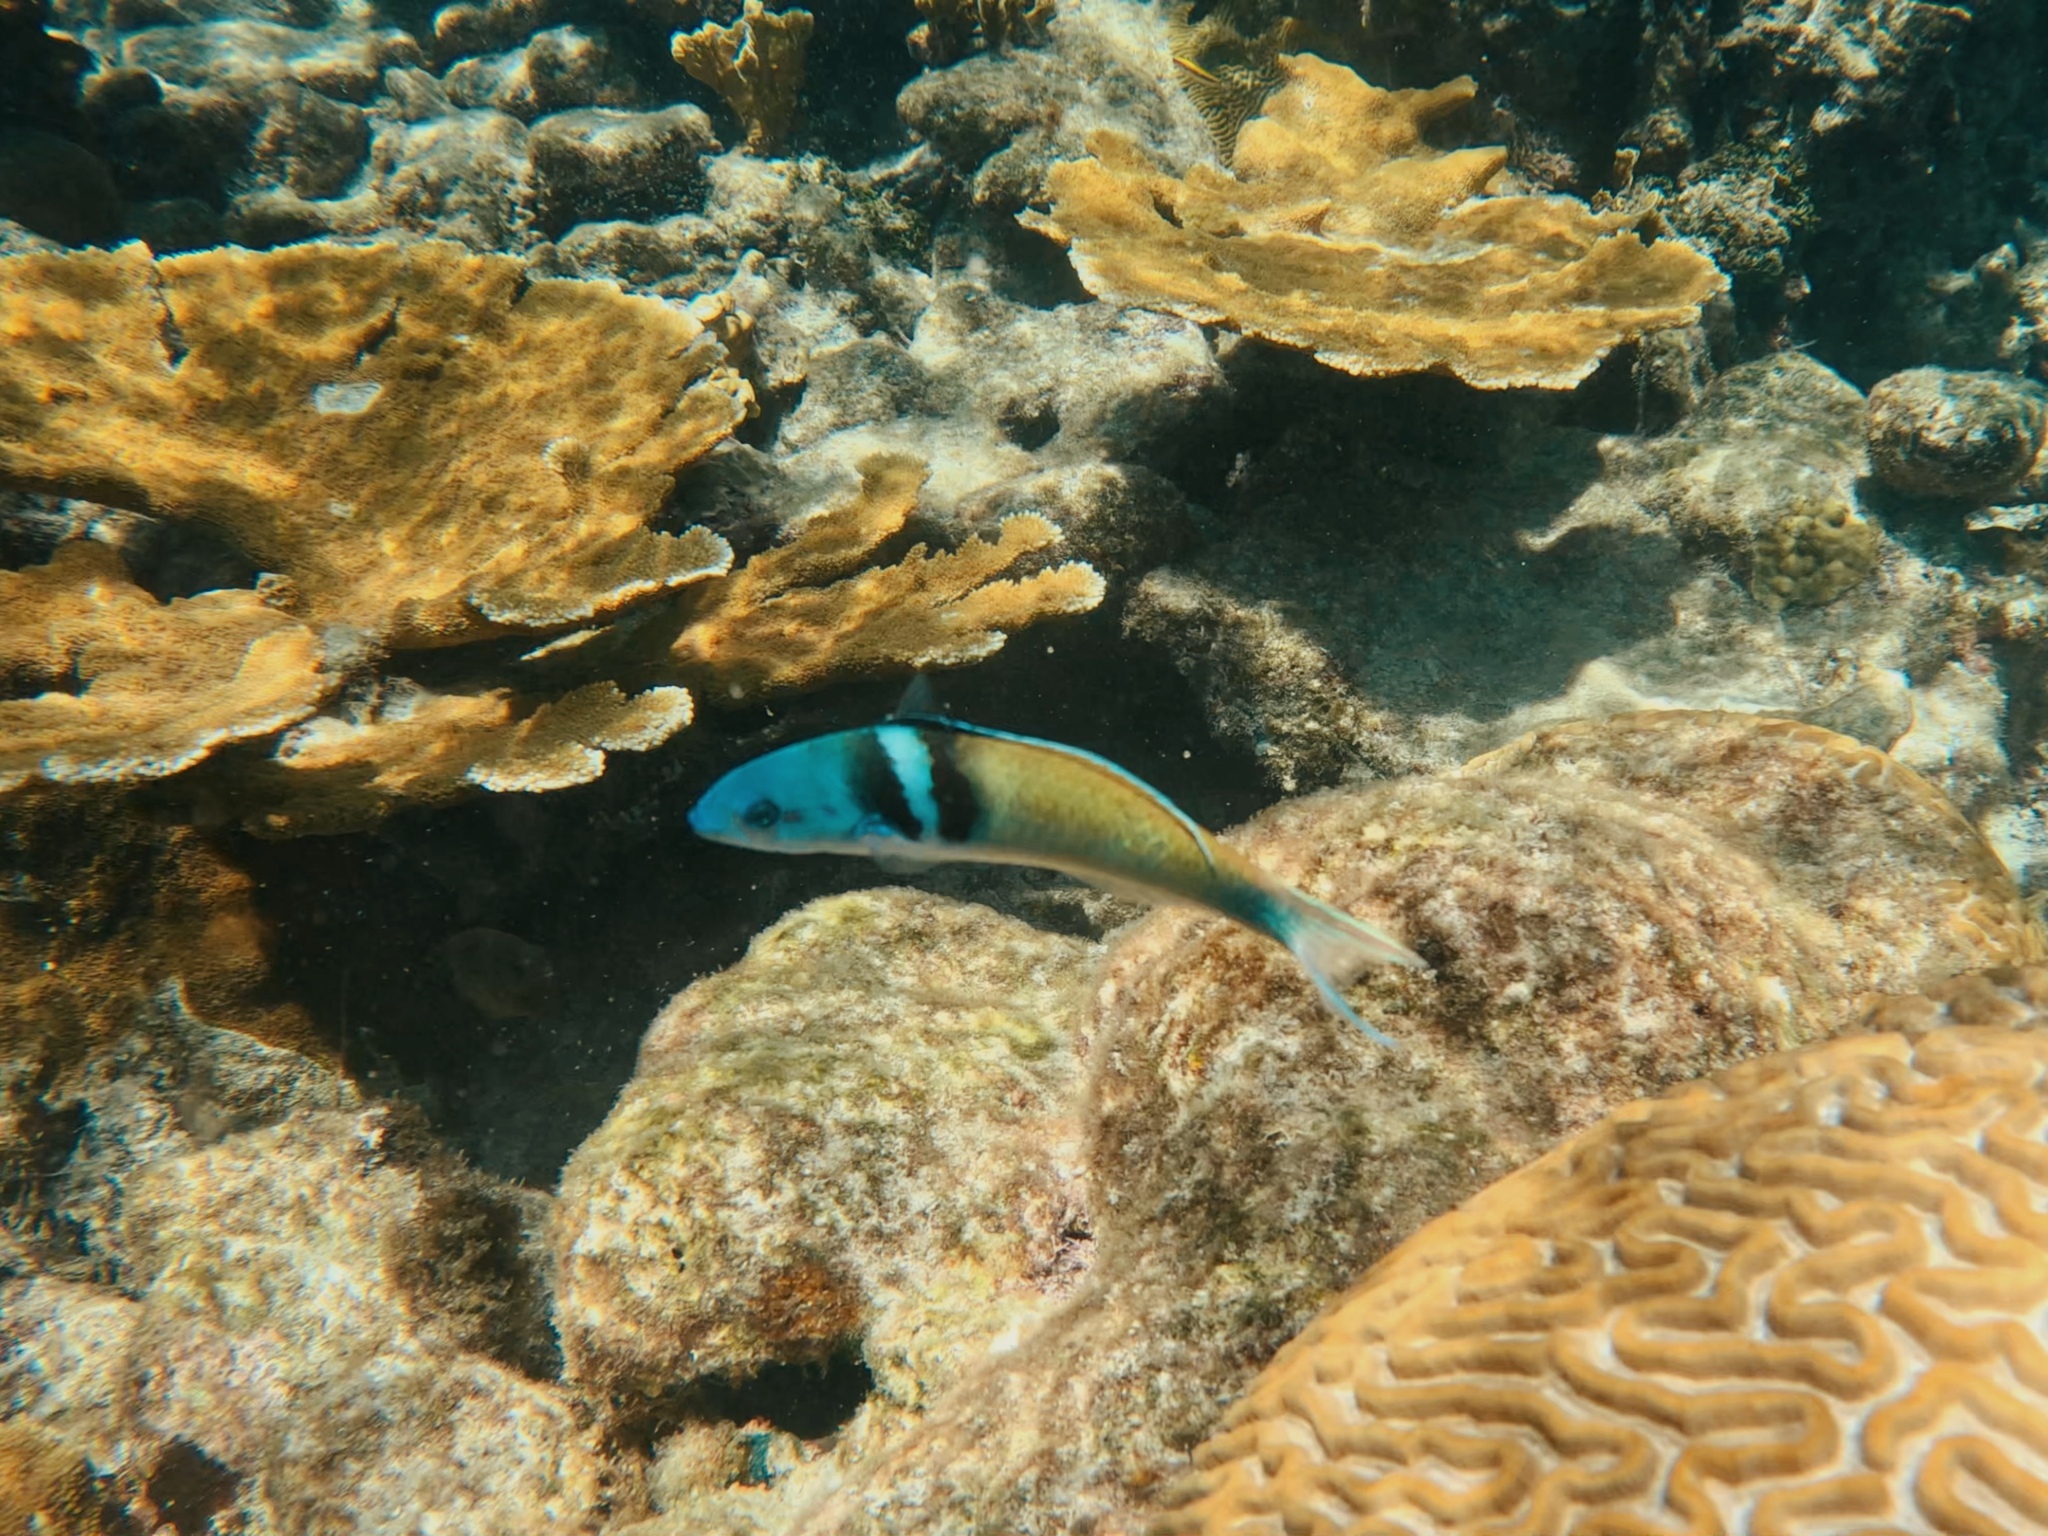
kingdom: Animalia
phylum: Chordata
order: Perciformes
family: Labridae
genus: Thalassoma
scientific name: Thalassoma bifasciatum
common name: Bluehead wrasse
